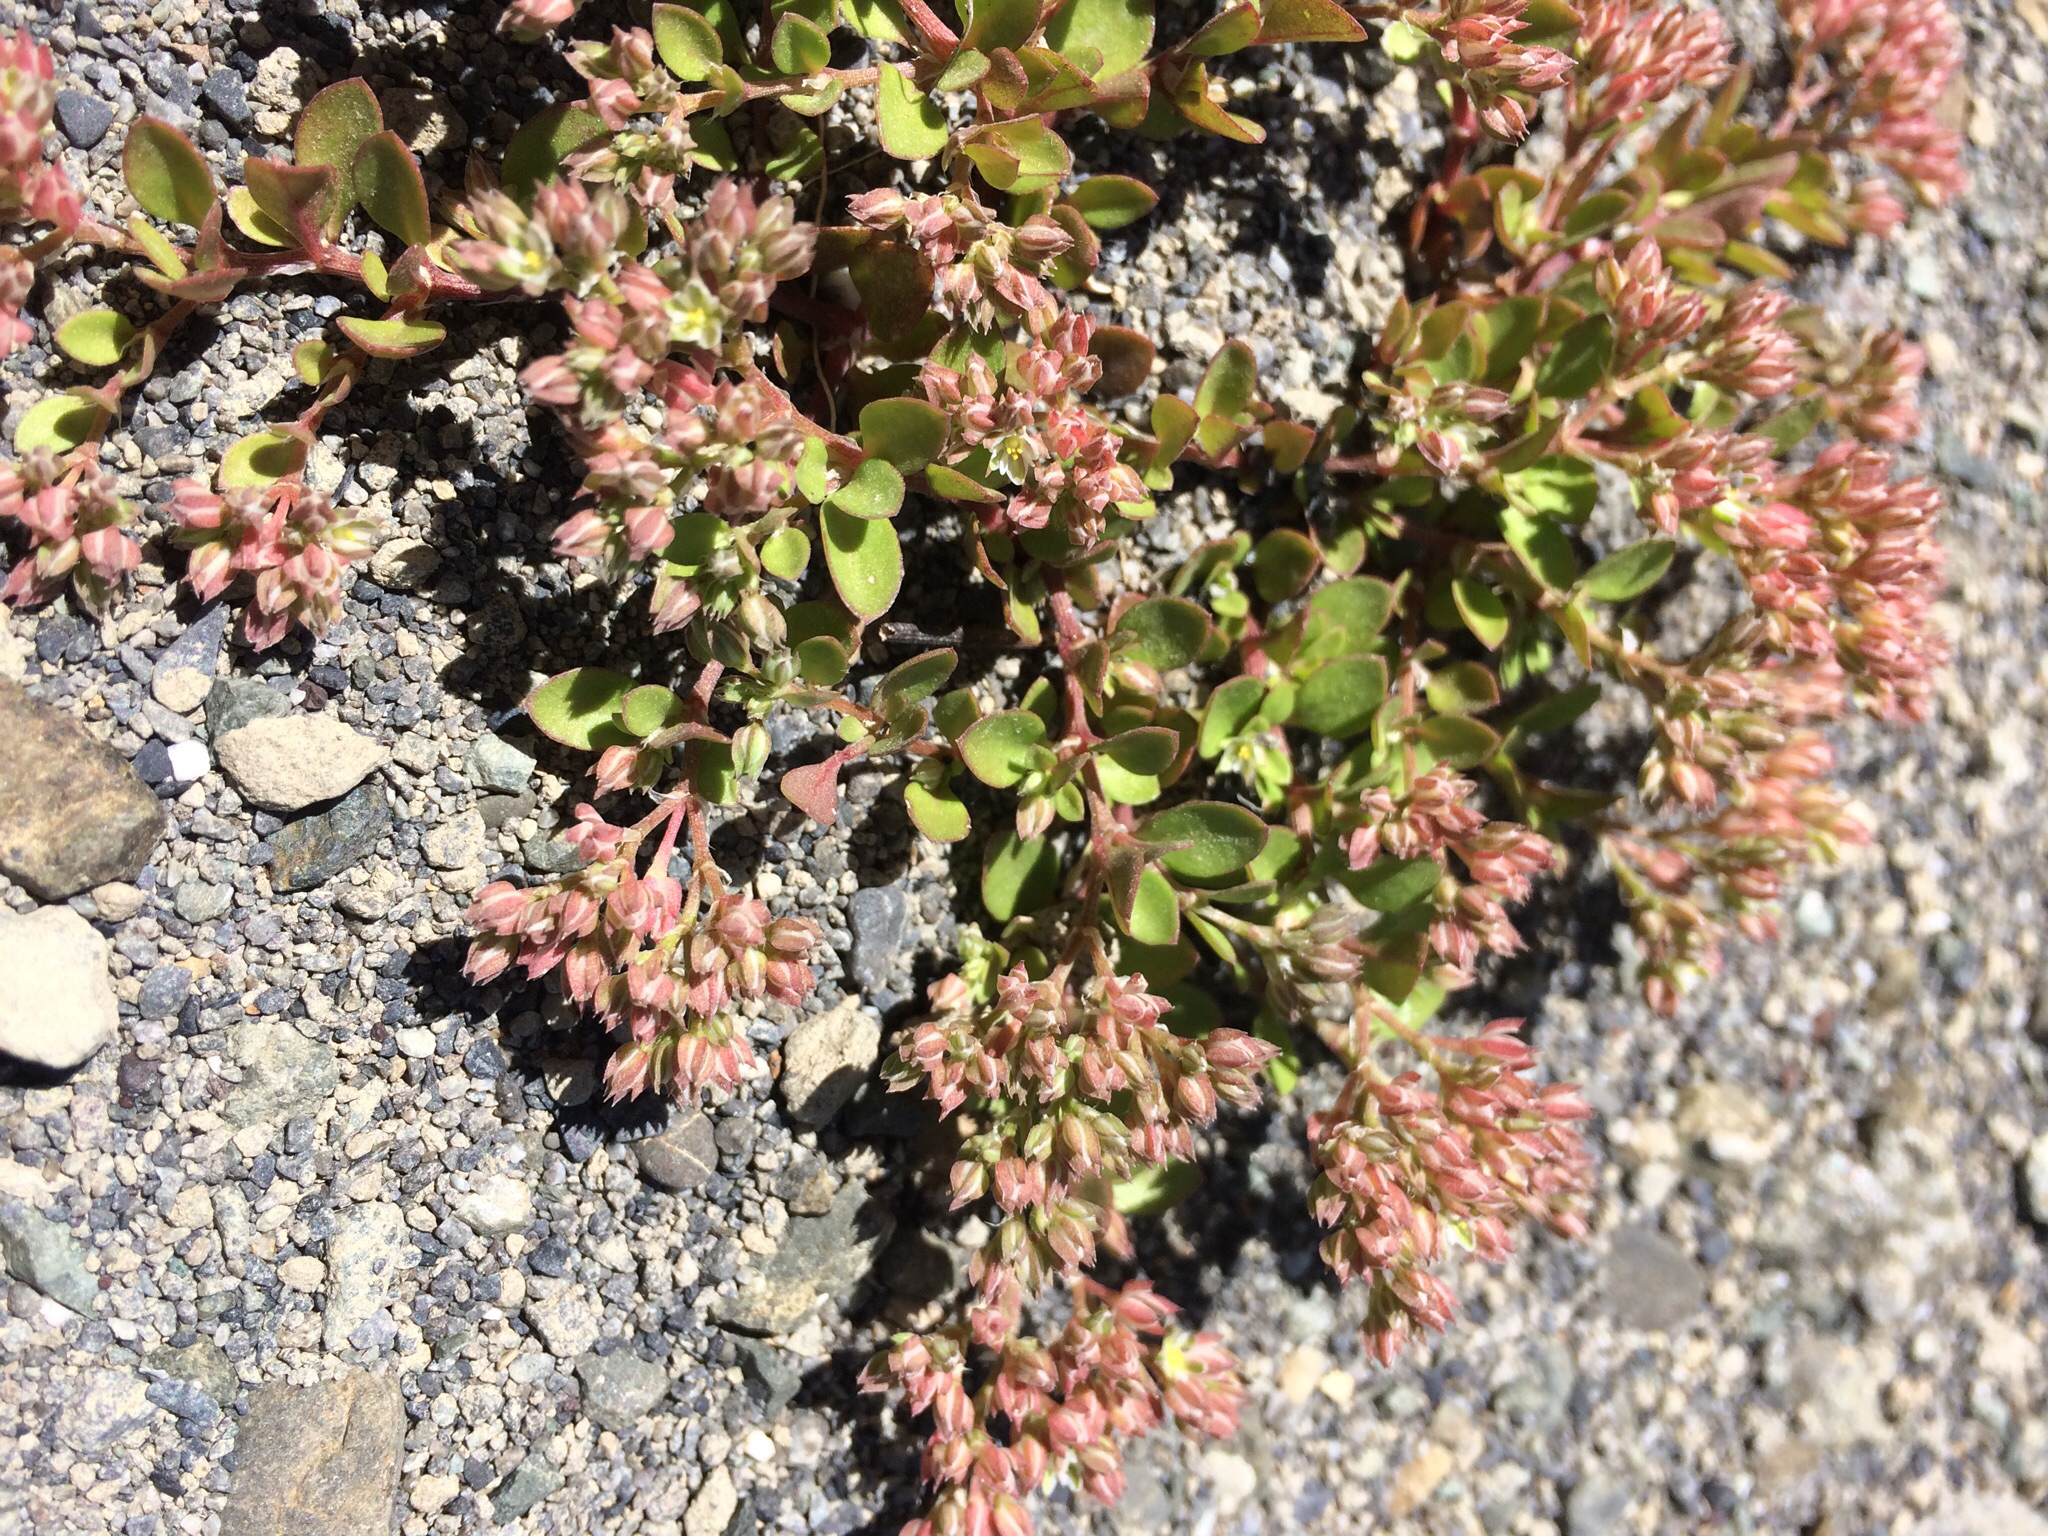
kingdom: Plantae
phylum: Tracheophyta
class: Magnoliopsida
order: Caryophyllales
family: Caryophyllaceae
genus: Polycarpon
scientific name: Polycarpon tetraphyllum
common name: Four-leaved all-seed
